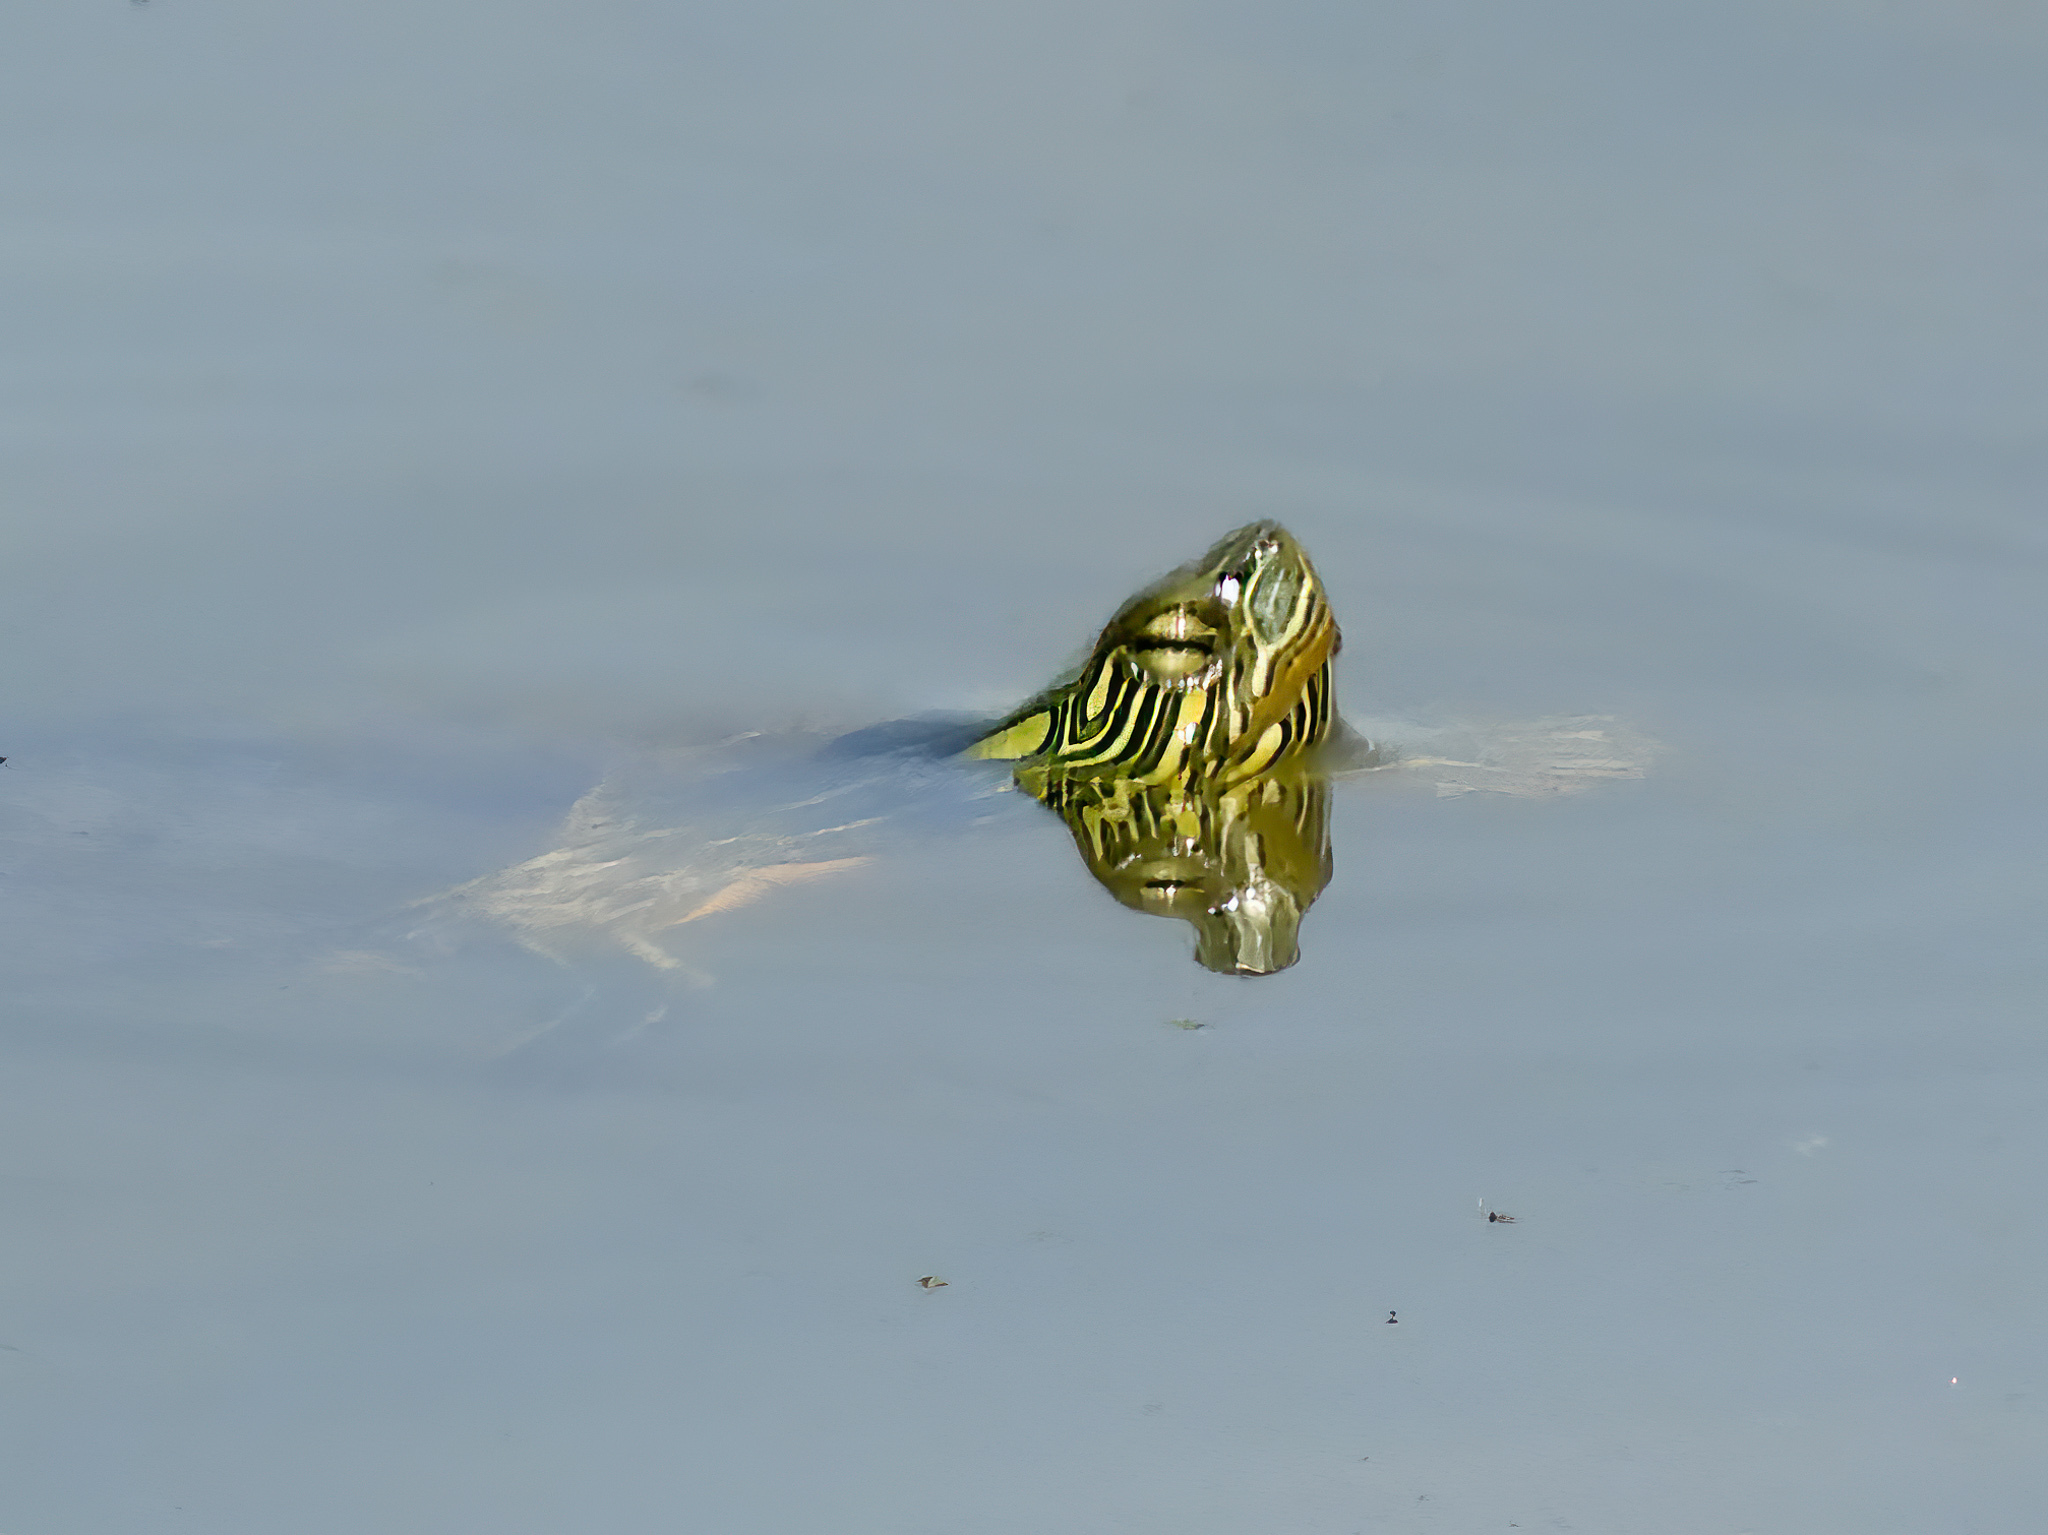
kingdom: Animalia
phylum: Chordata
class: Testudines
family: Emydidae
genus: Graptemys
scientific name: Graptemys geographica
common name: Common map turtle
